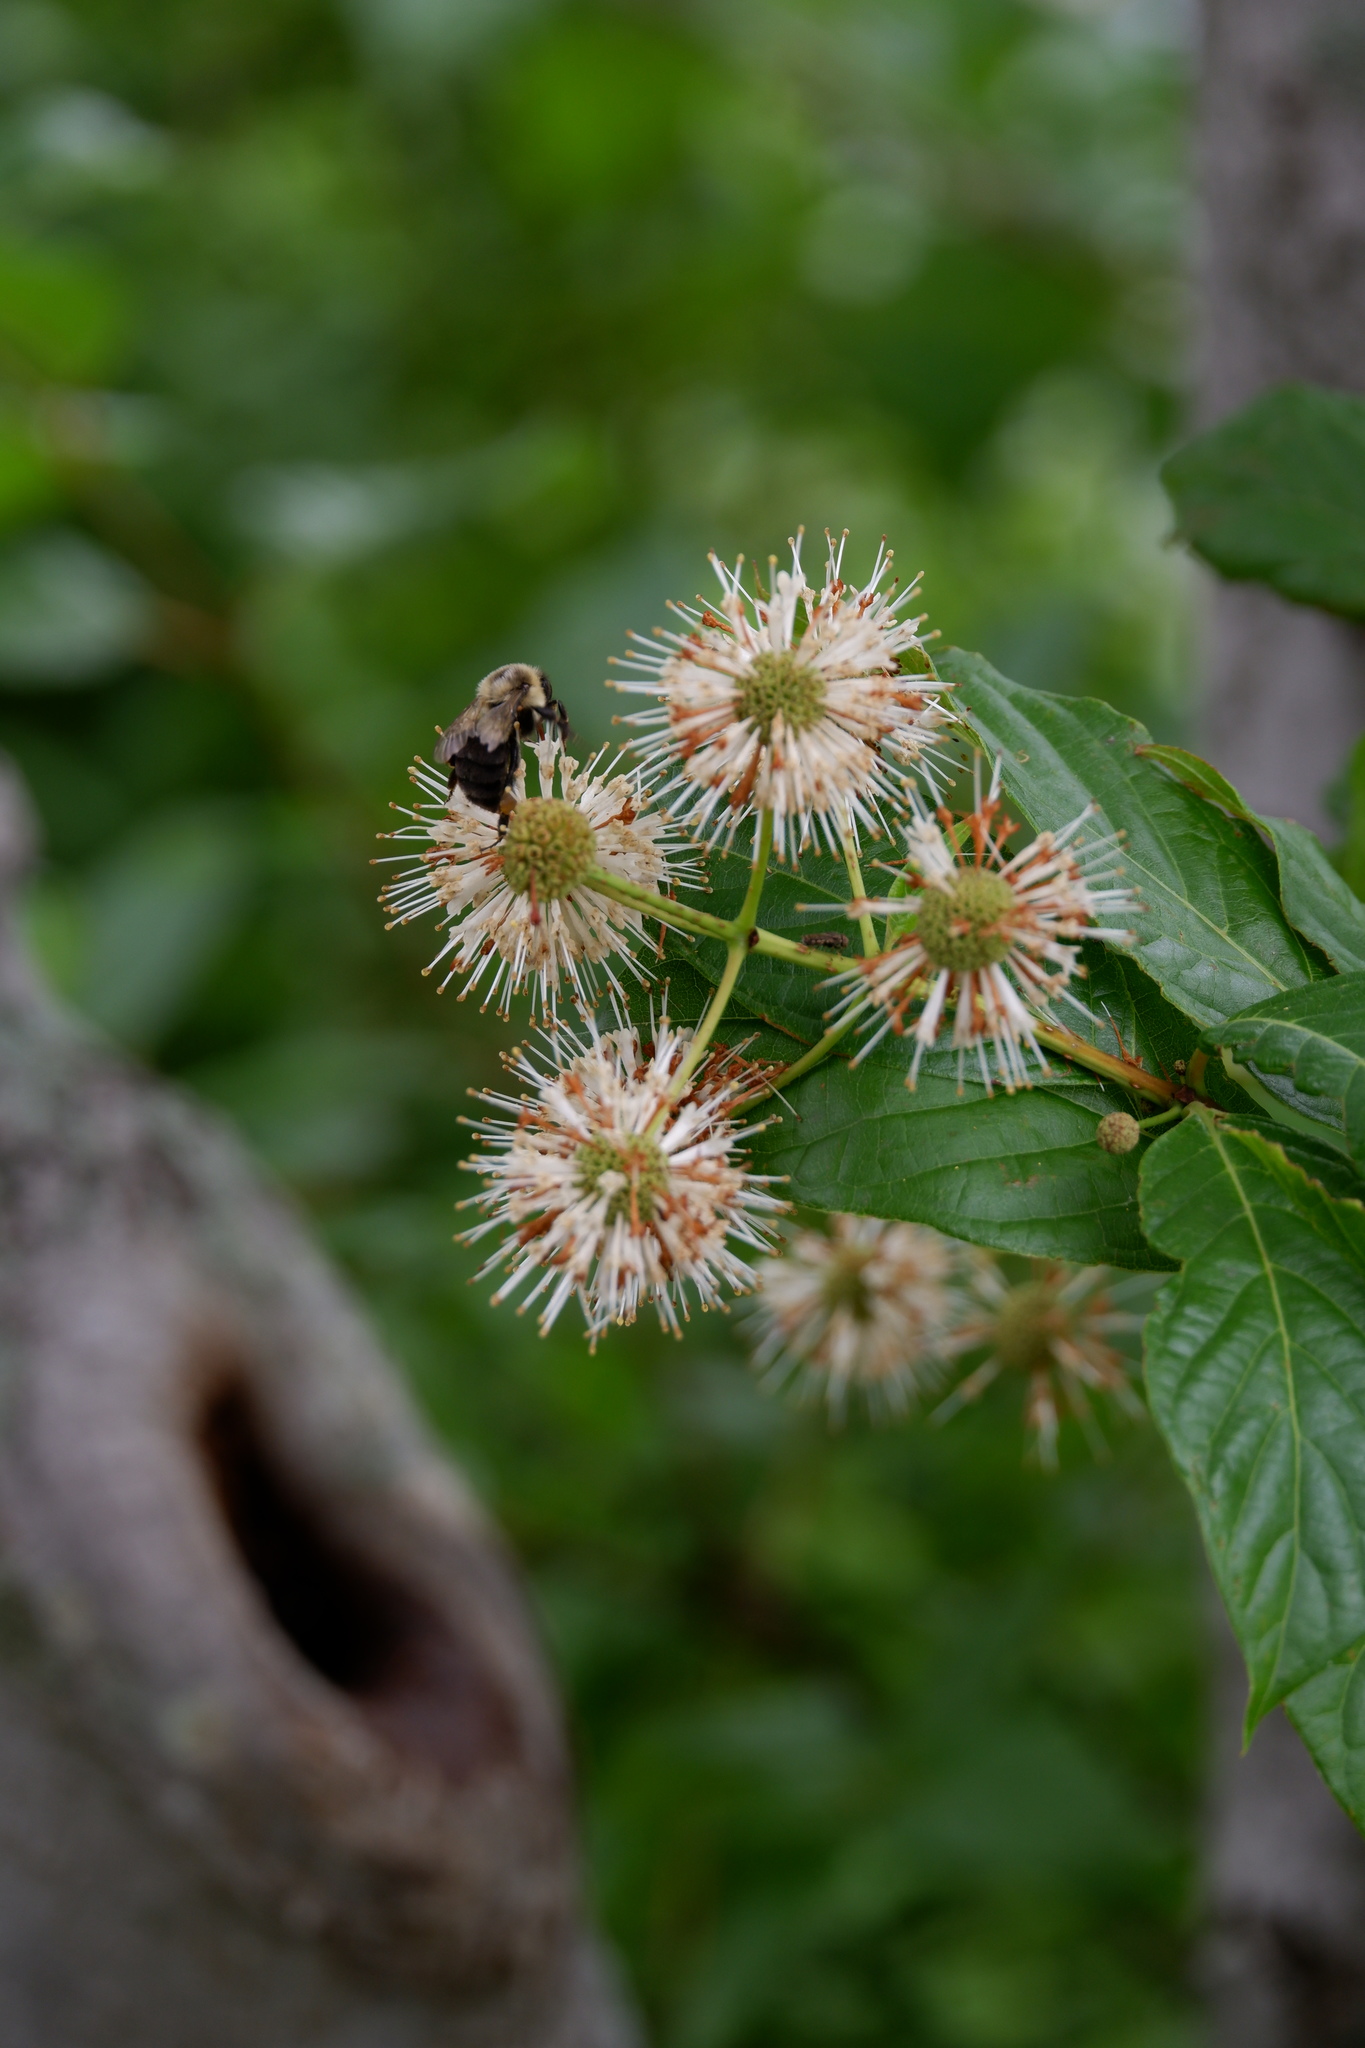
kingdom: Animalia
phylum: Arthropoda
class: Insecta
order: Hymenoptera
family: Apidae
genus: Bombus
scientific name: Bombus impatiens
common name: Common eastern bumble bee
